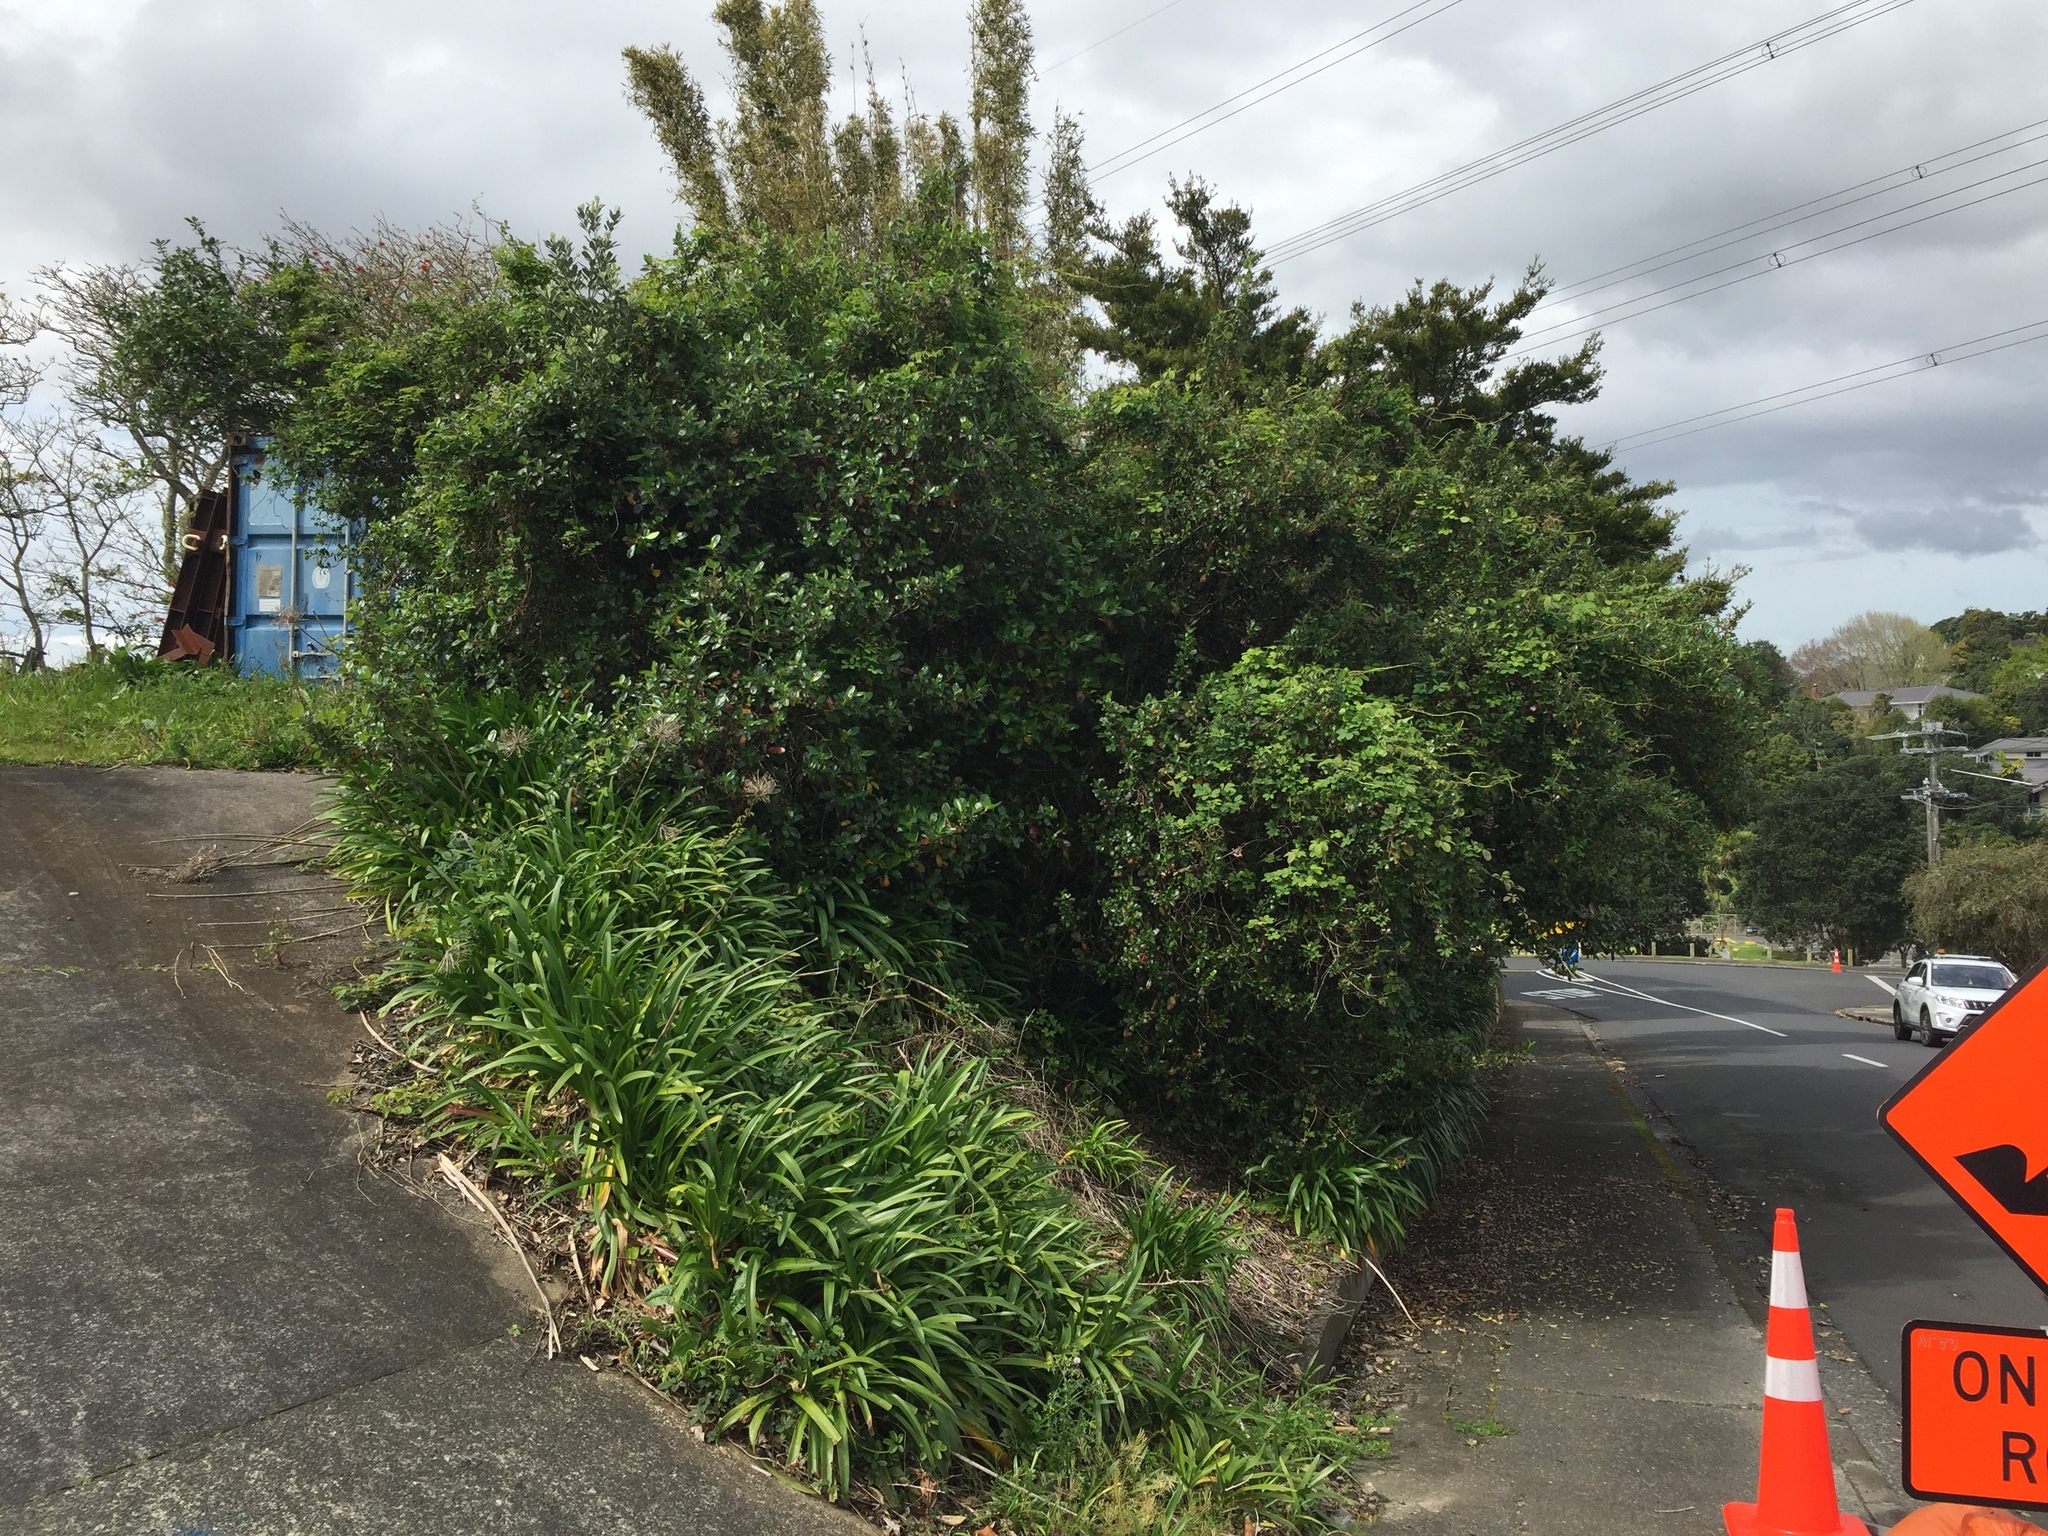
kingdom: Plantae
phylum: Tracheophyta
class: Magnoliopsida
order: Ranunculales
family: Lardizabalaceae
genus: Akebia
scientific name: Akebia quinata
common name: Five-leaf akebia
